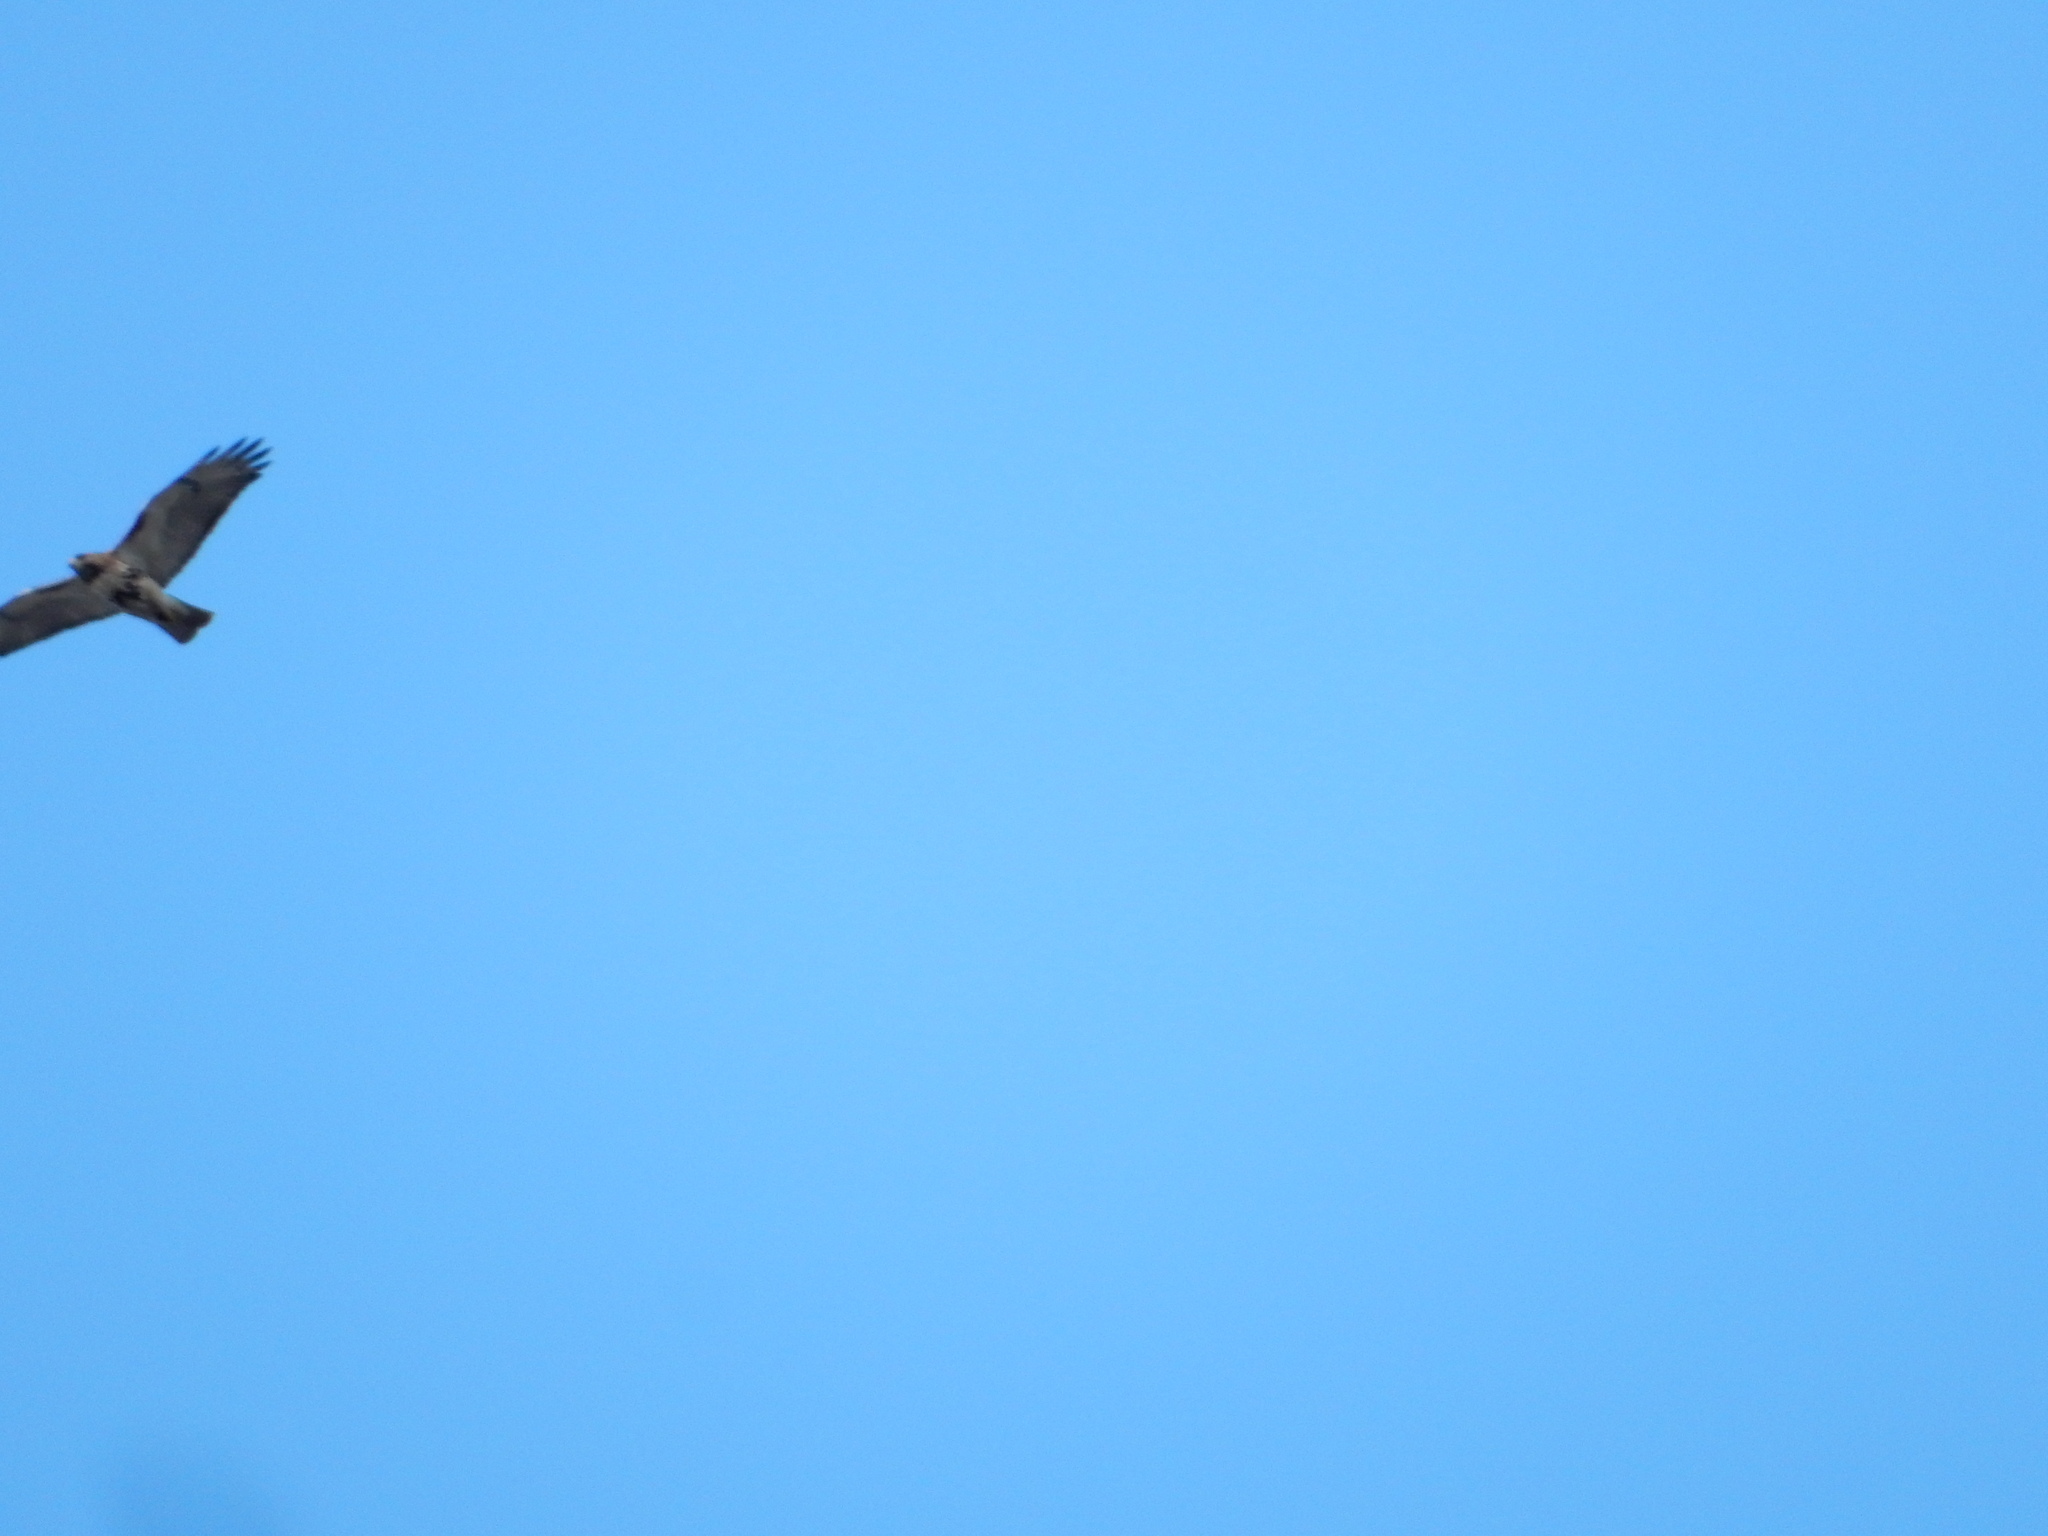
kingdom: Animalia
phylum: Chordata
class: Aves
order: Accipitriformes
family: Accipitridae
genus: Buteo
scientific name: Buteo jamaicensis
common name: Red-tailed hawk
